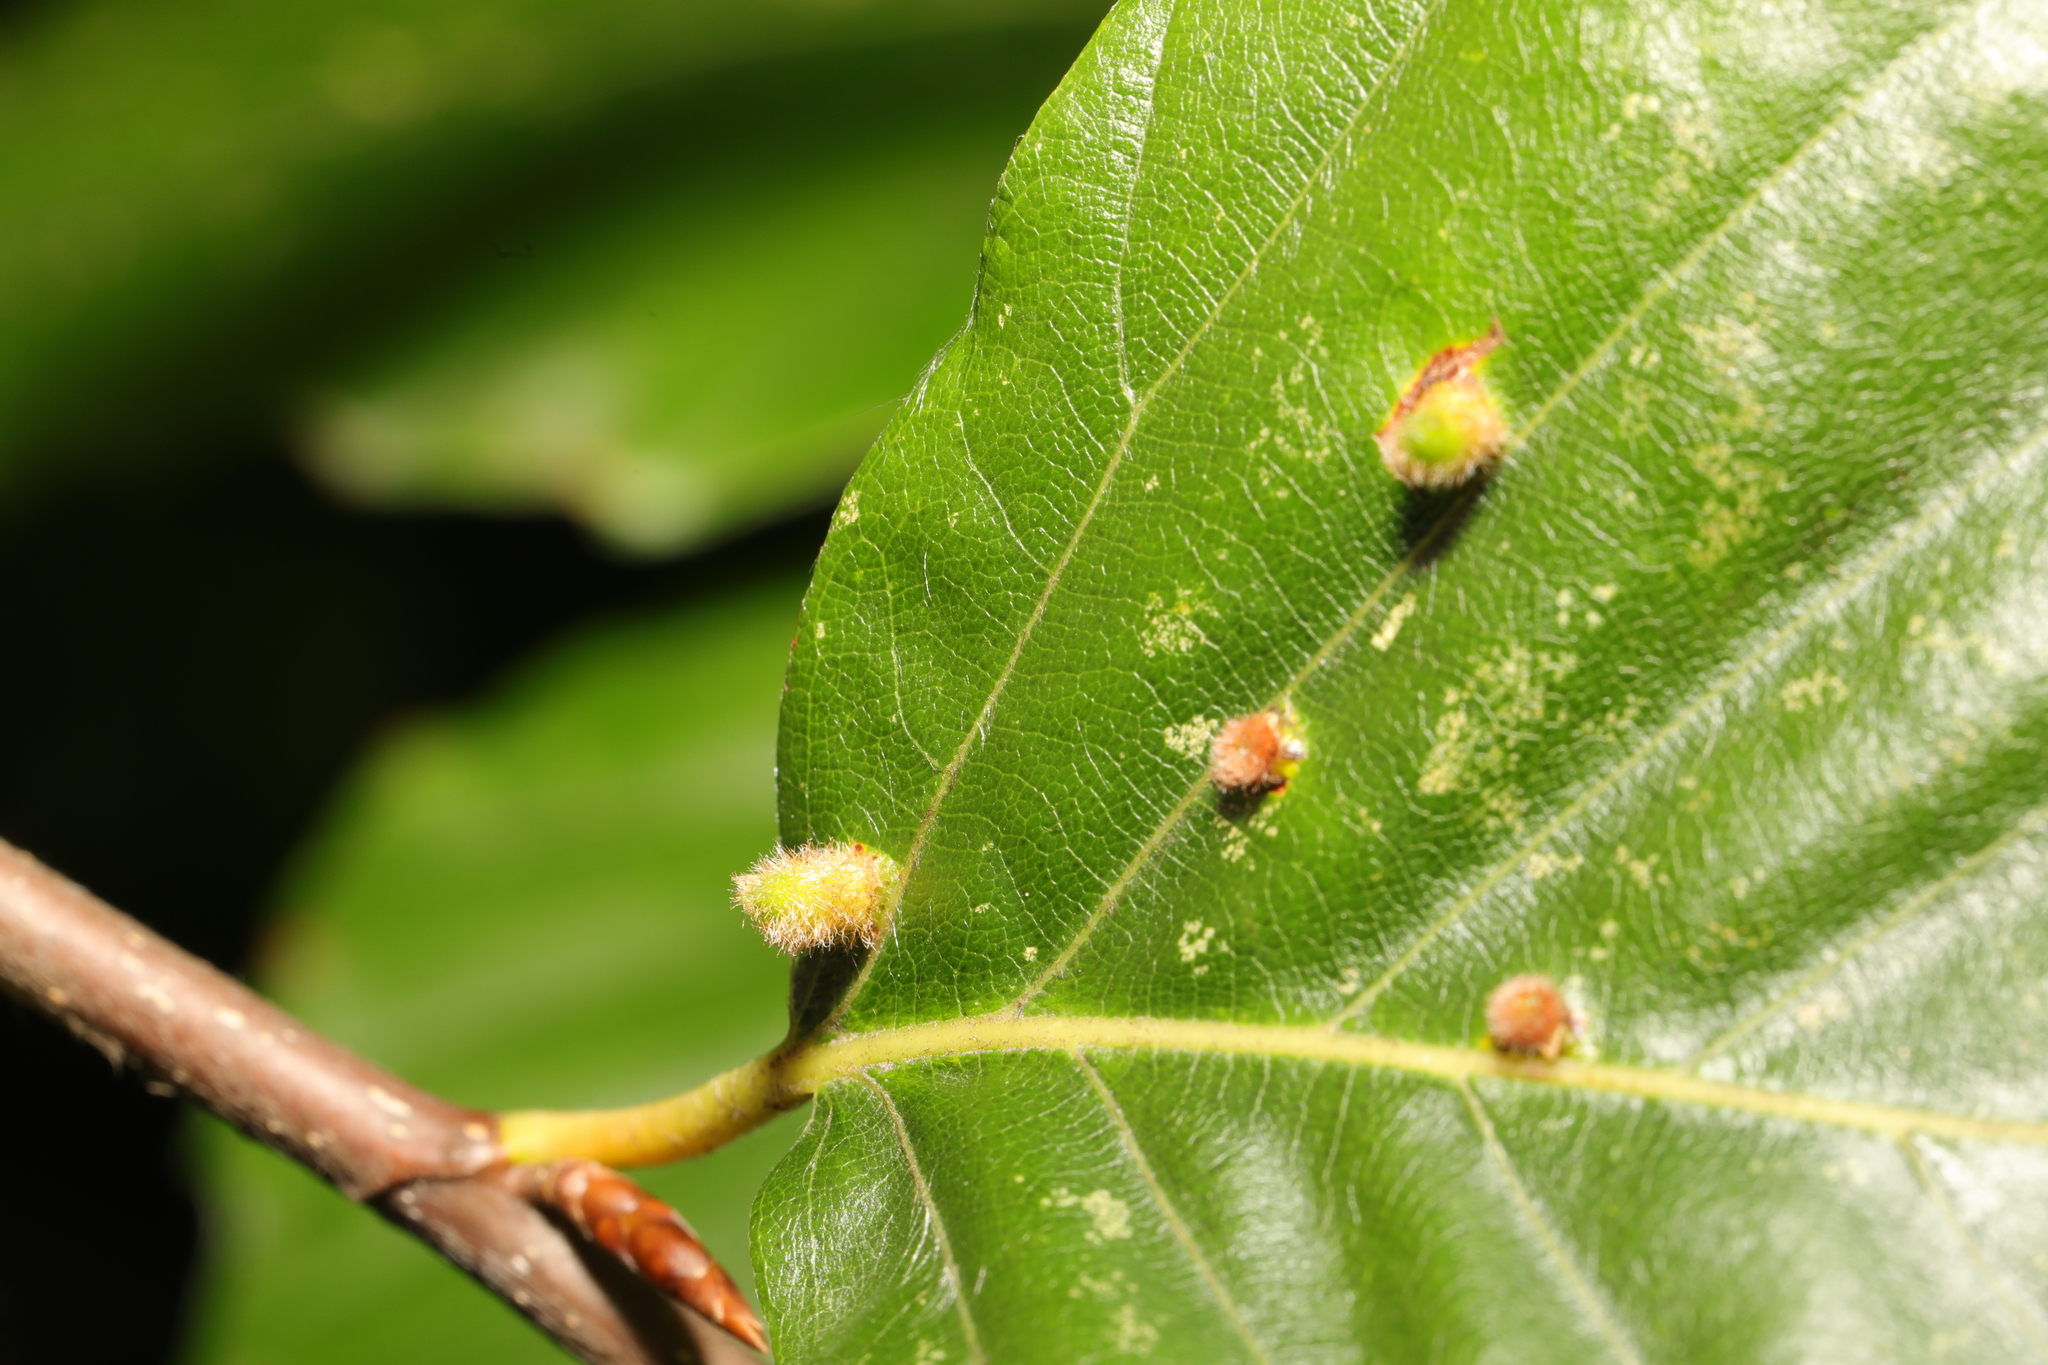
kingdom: Animalia
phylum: Arthropoda
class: Insecta
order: Diptera
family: Cecidomyiidae
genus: Hartigiola
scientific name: Hartigiola annulipes
